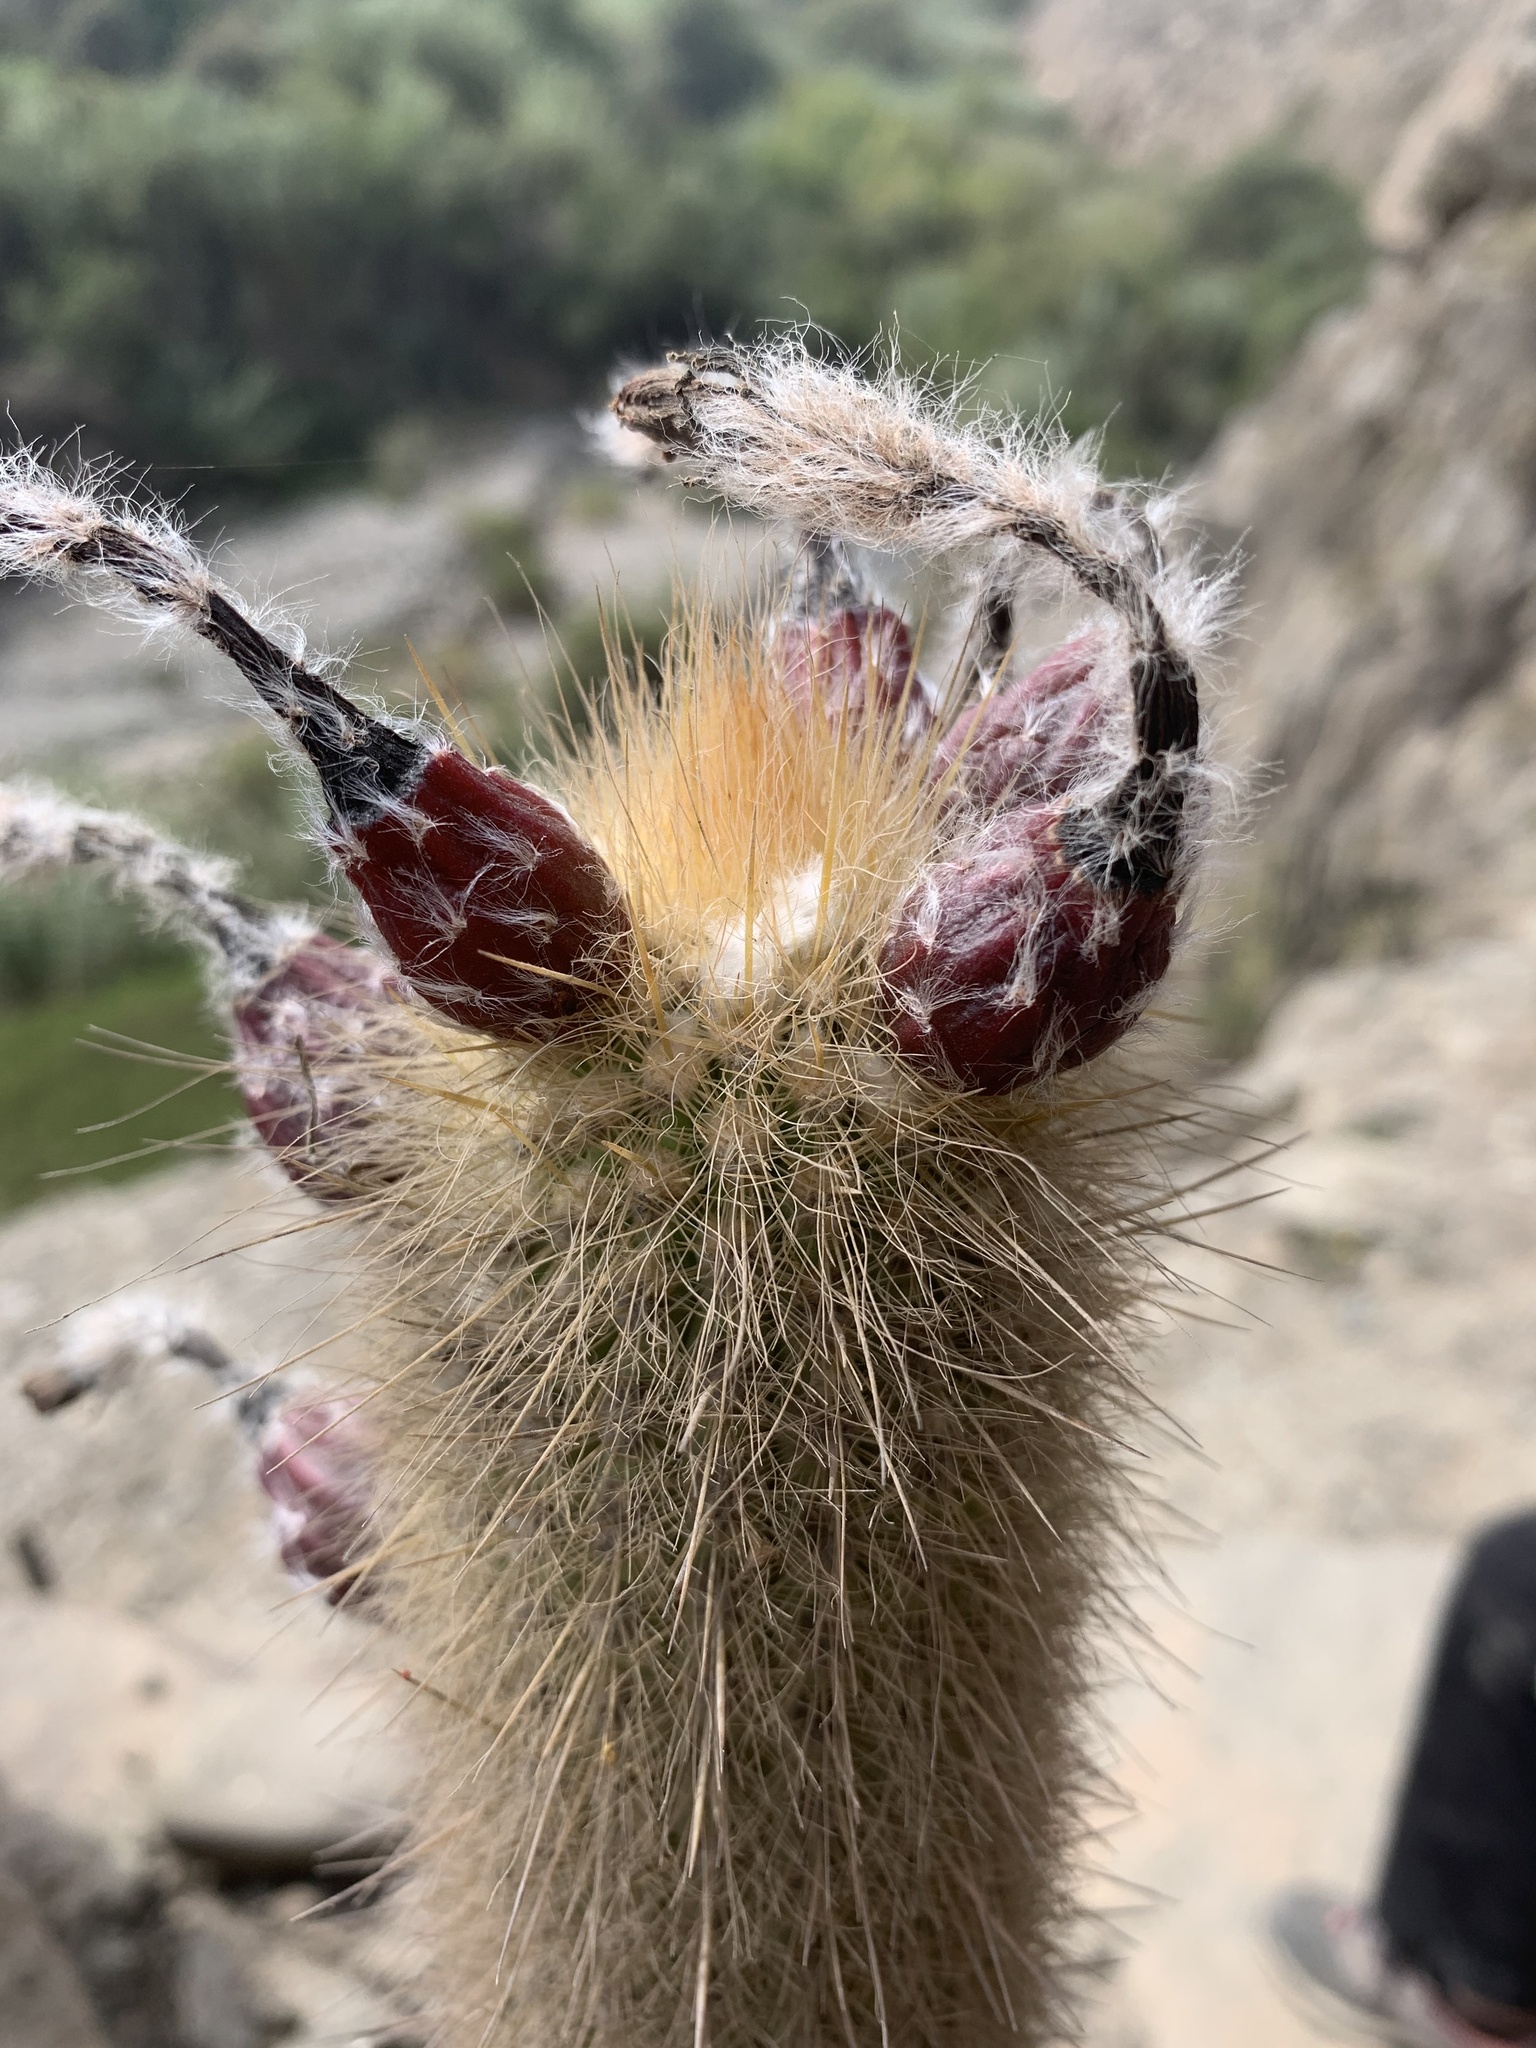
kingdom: Plantae
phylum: Tracheophyta
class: Magnoliopsida
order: Caryophyllales
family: Cactaceae
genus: Haageocereus
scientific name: Haageocereus pseudomelanostele
